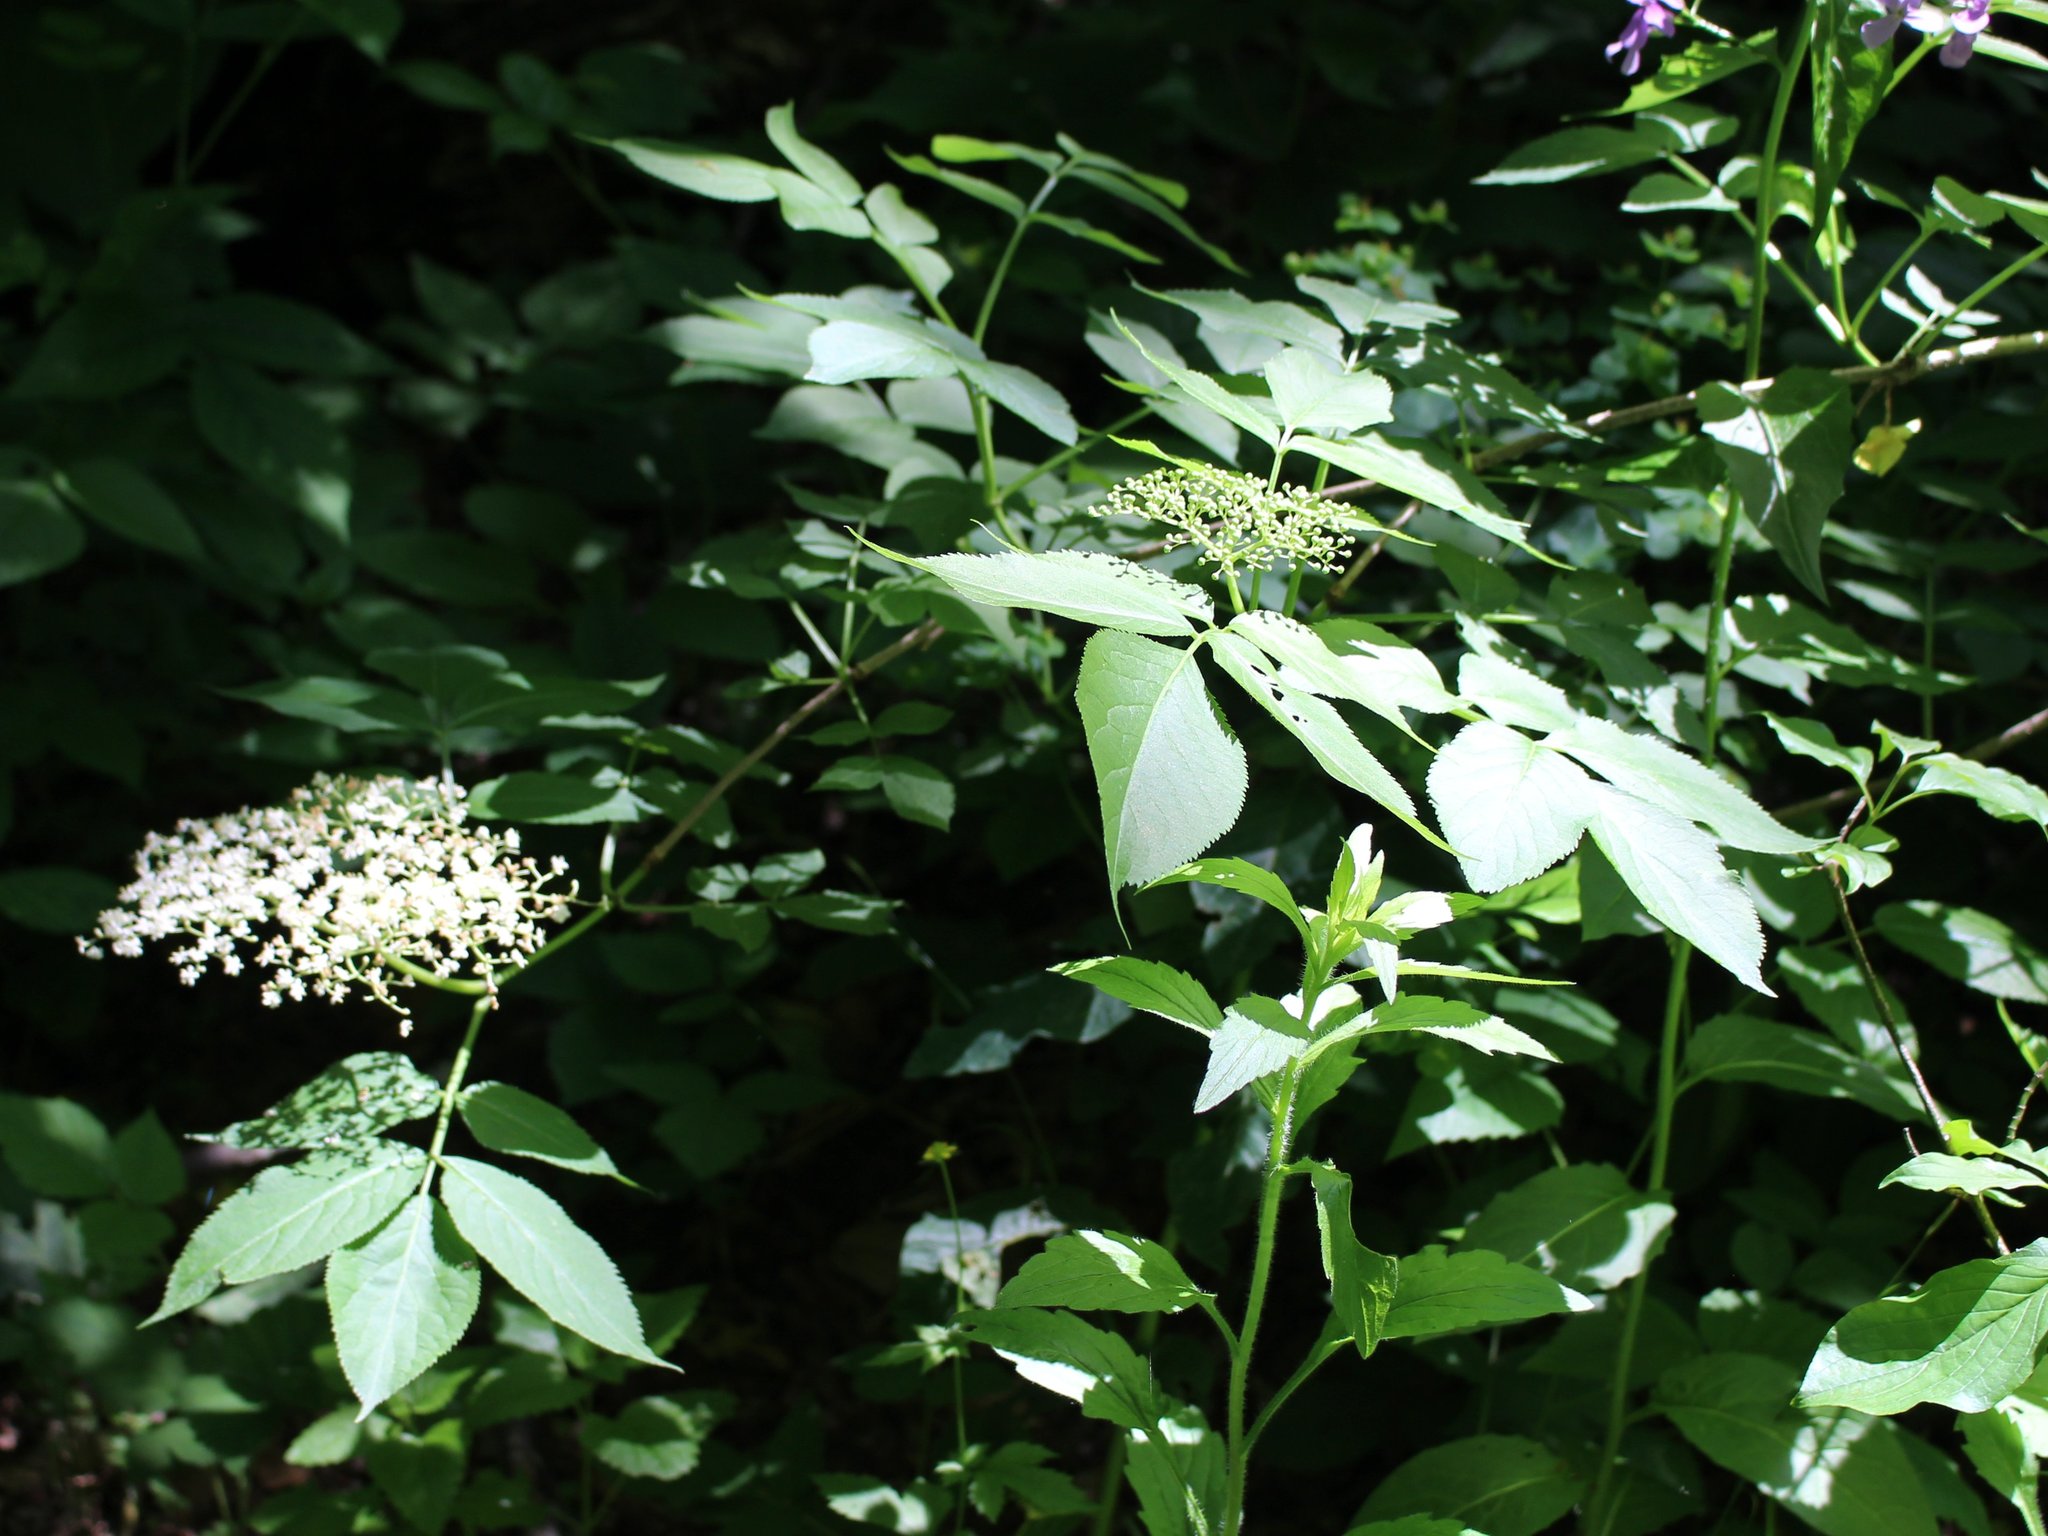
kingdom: Plantae
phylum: Tracheophyta
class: Magnoliopsida
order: Dipsacales
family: Viburnaceae
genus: Sambucus
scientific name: Sambucus nigra
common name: Elder
